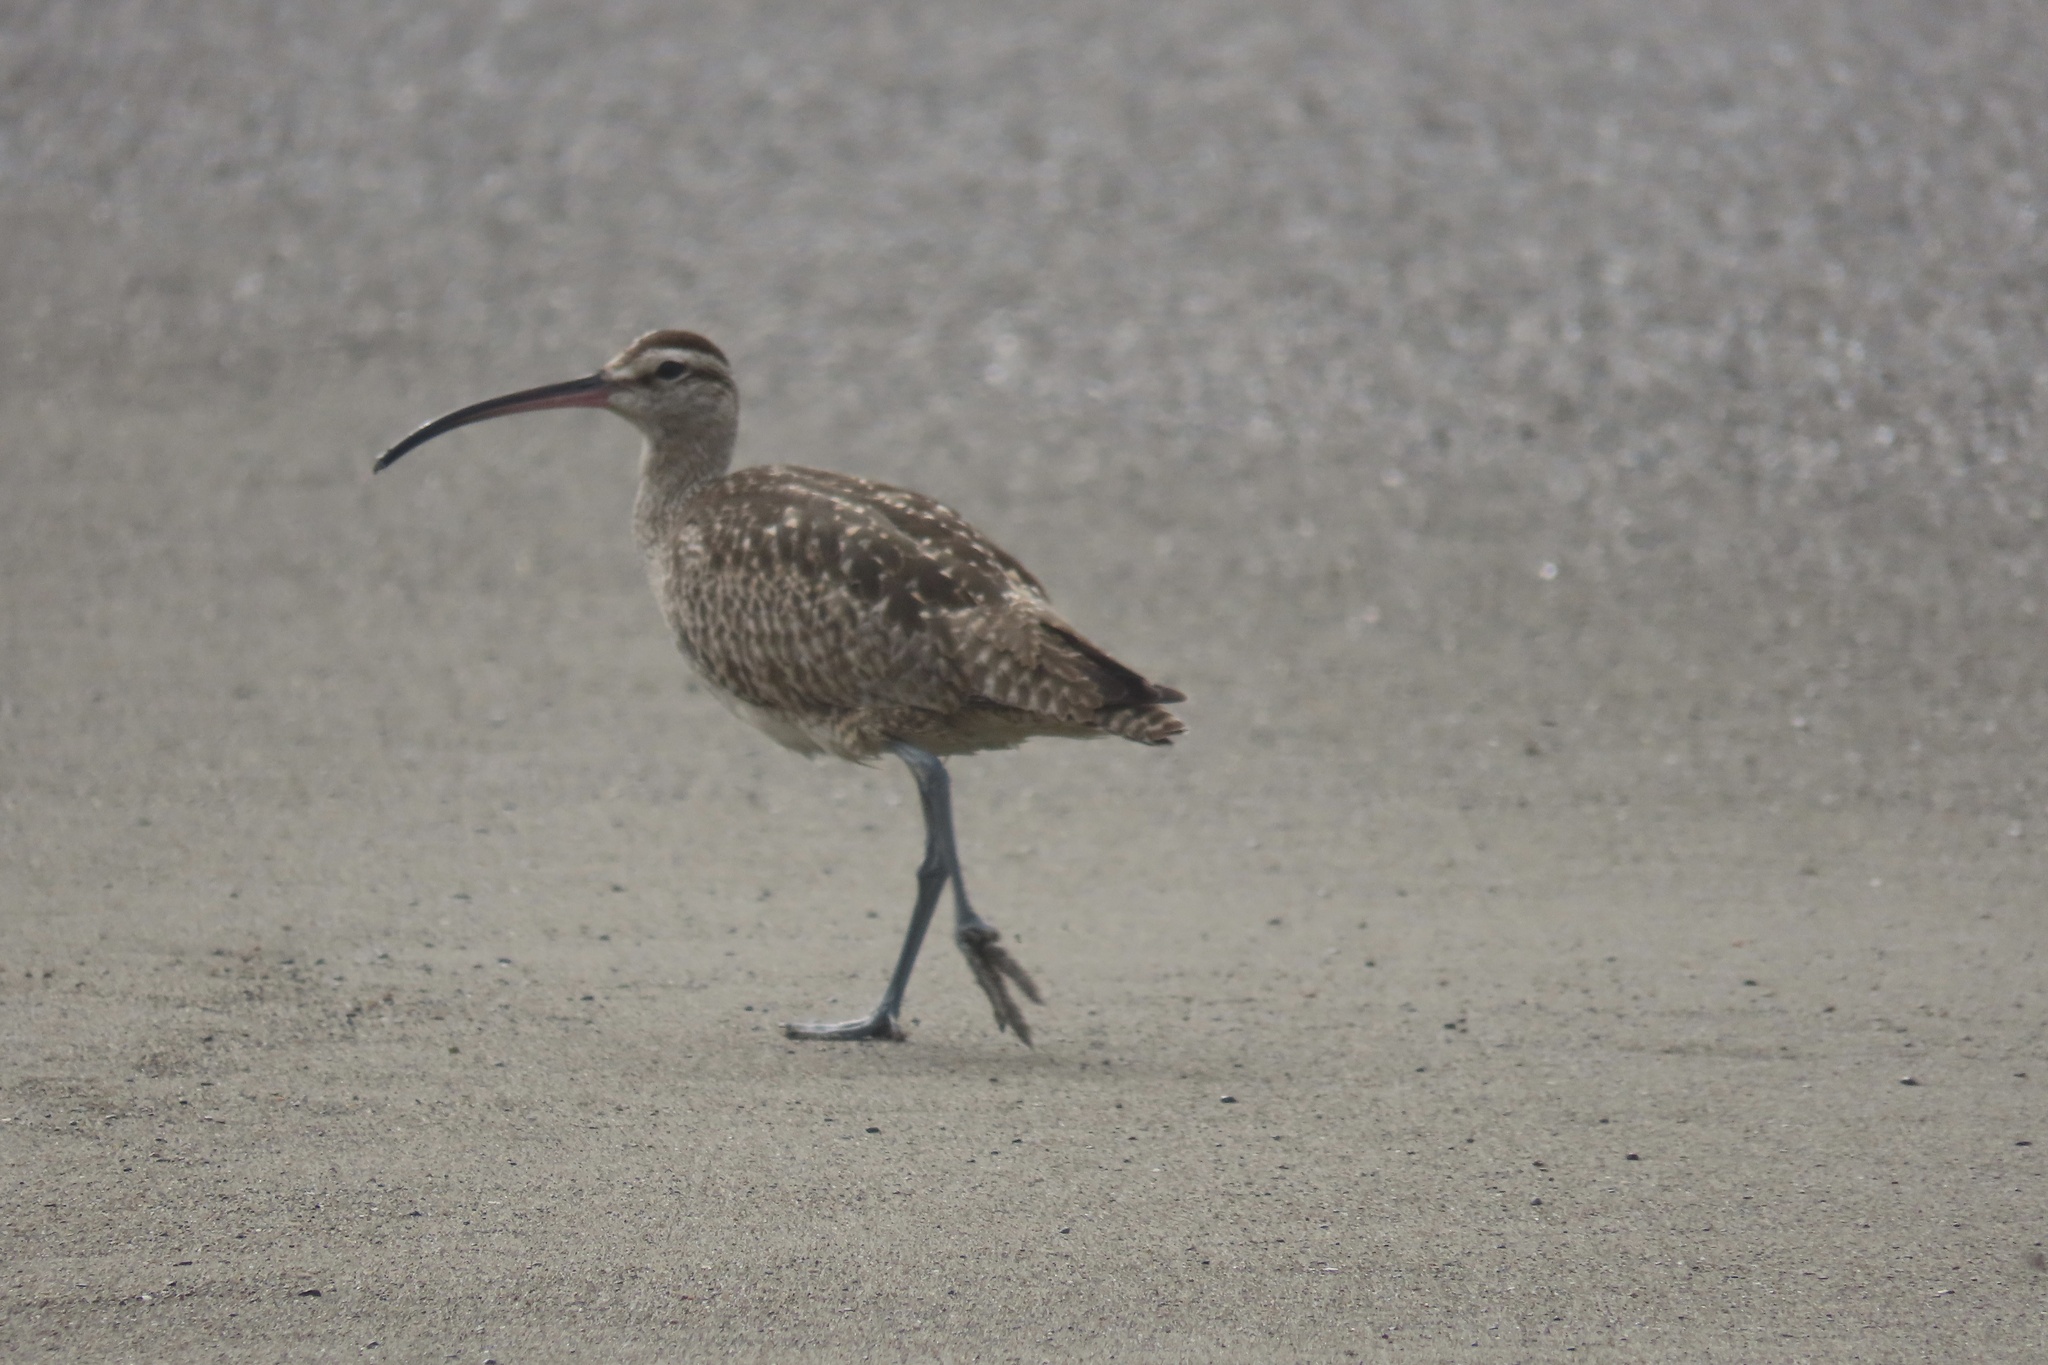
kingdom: Animalia
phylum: Chordata
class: Aves
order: Charadriiformes
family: Scolopacidae
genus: Numenius
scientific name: Numenius phaeopus
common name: Whimbrel
